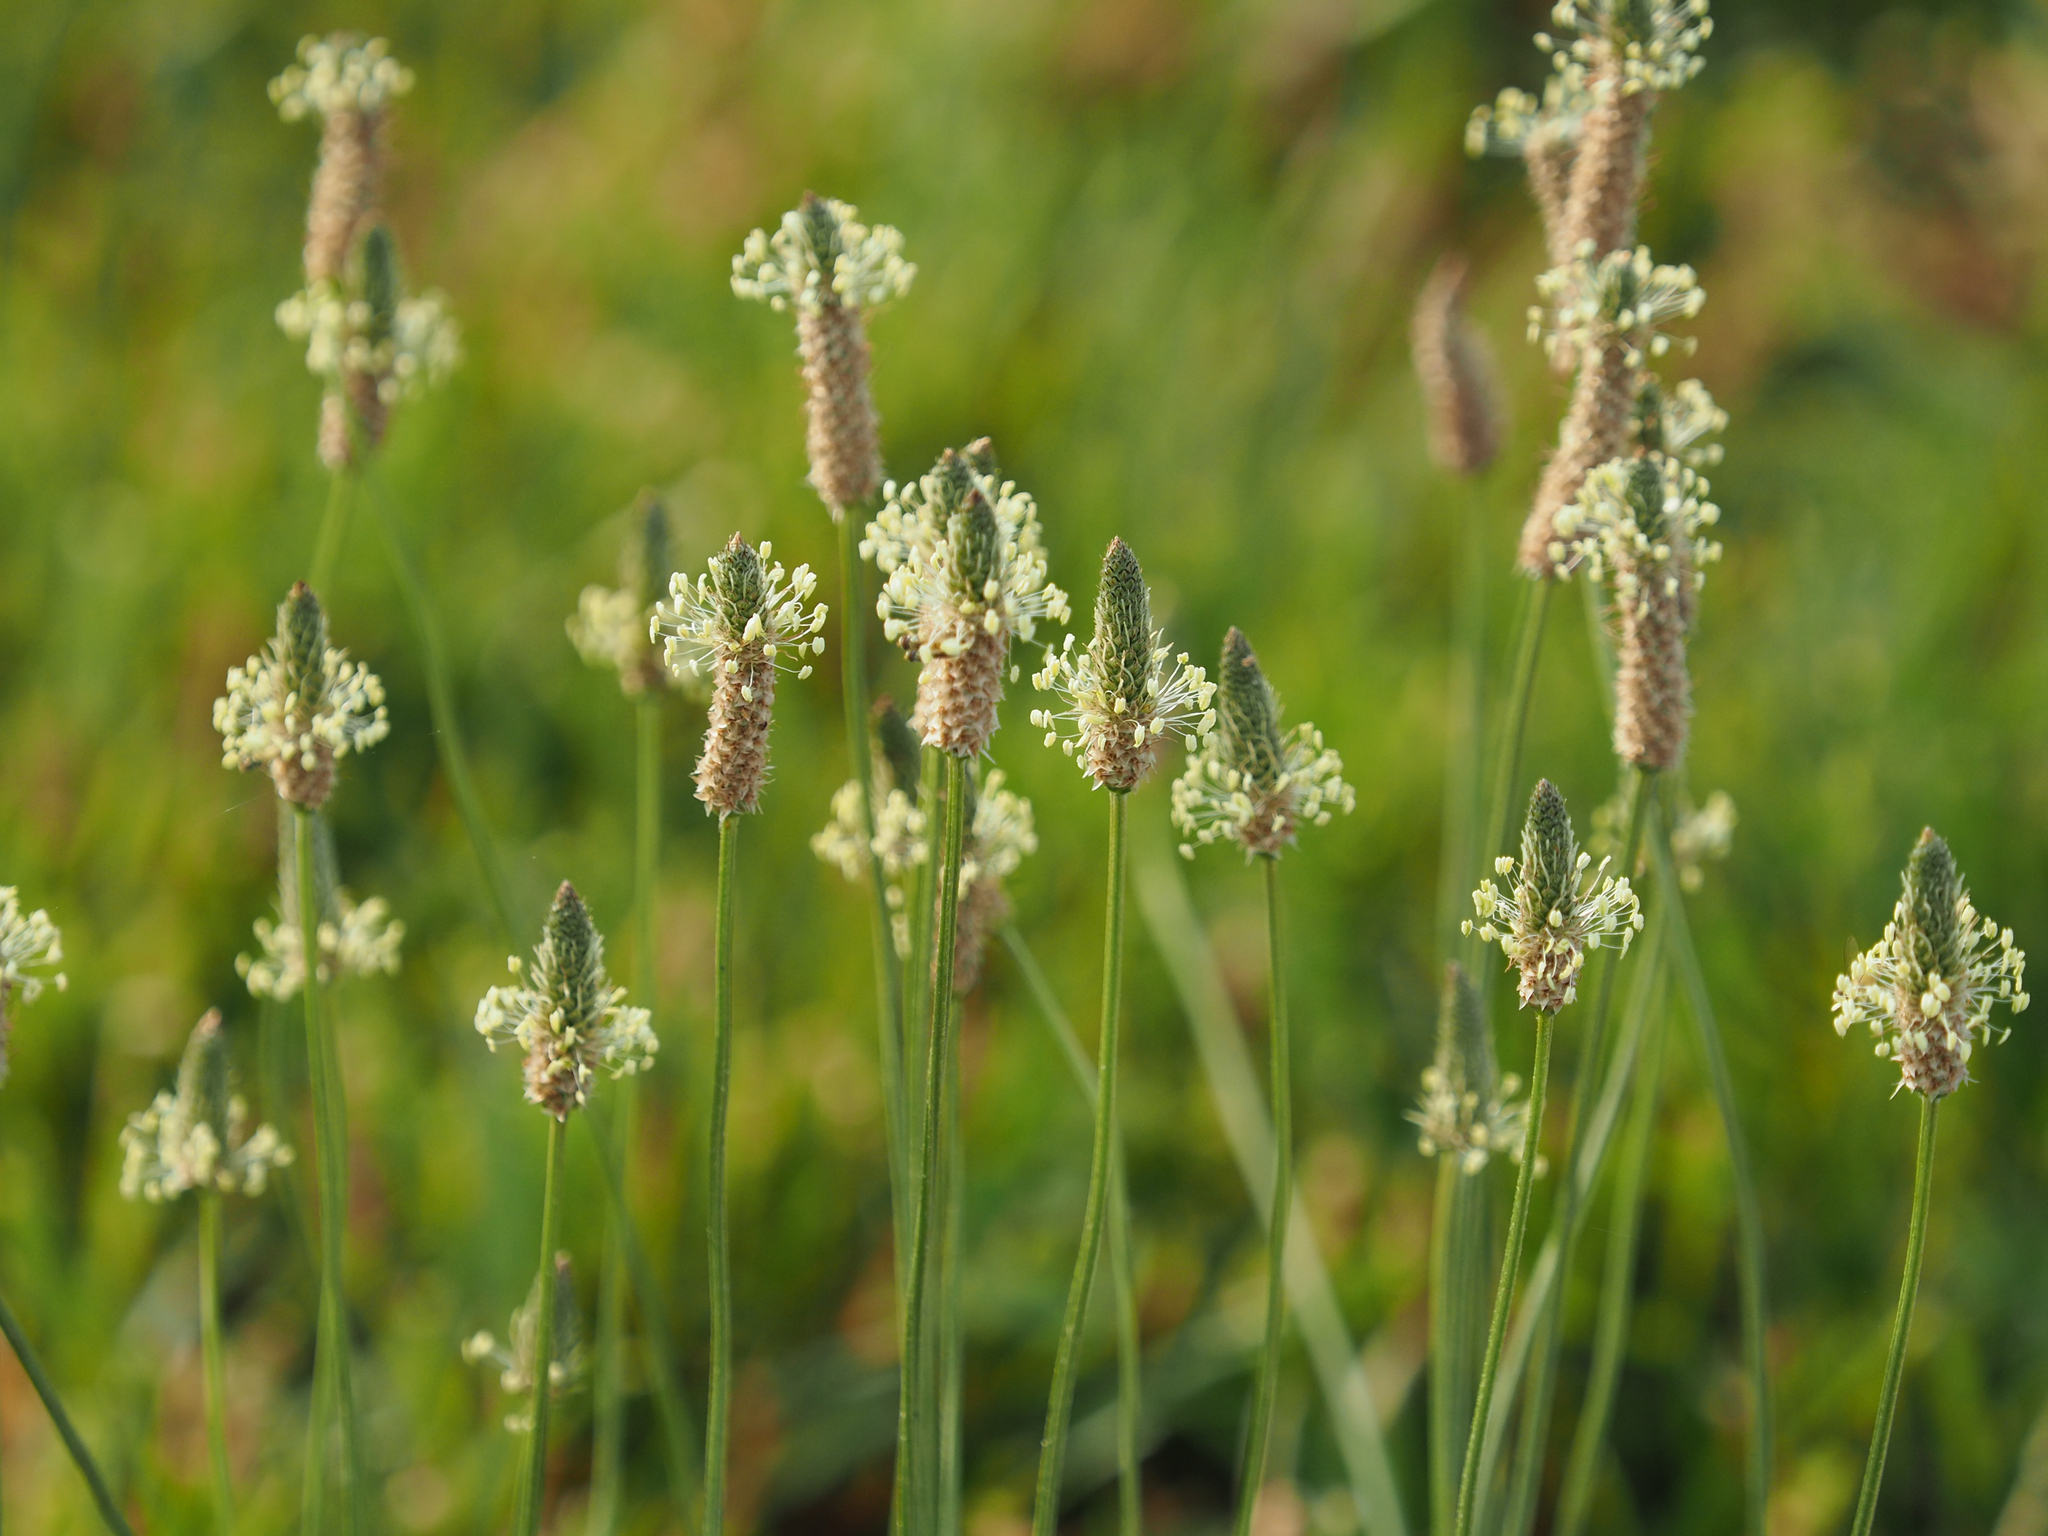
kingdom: Plantae
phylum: Tracheophyta
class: Magnoliopsida
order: Lamiales
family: Plantaginaceae
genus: Plantago
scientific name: Plantago lanceolata
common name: Ribwort plantain
